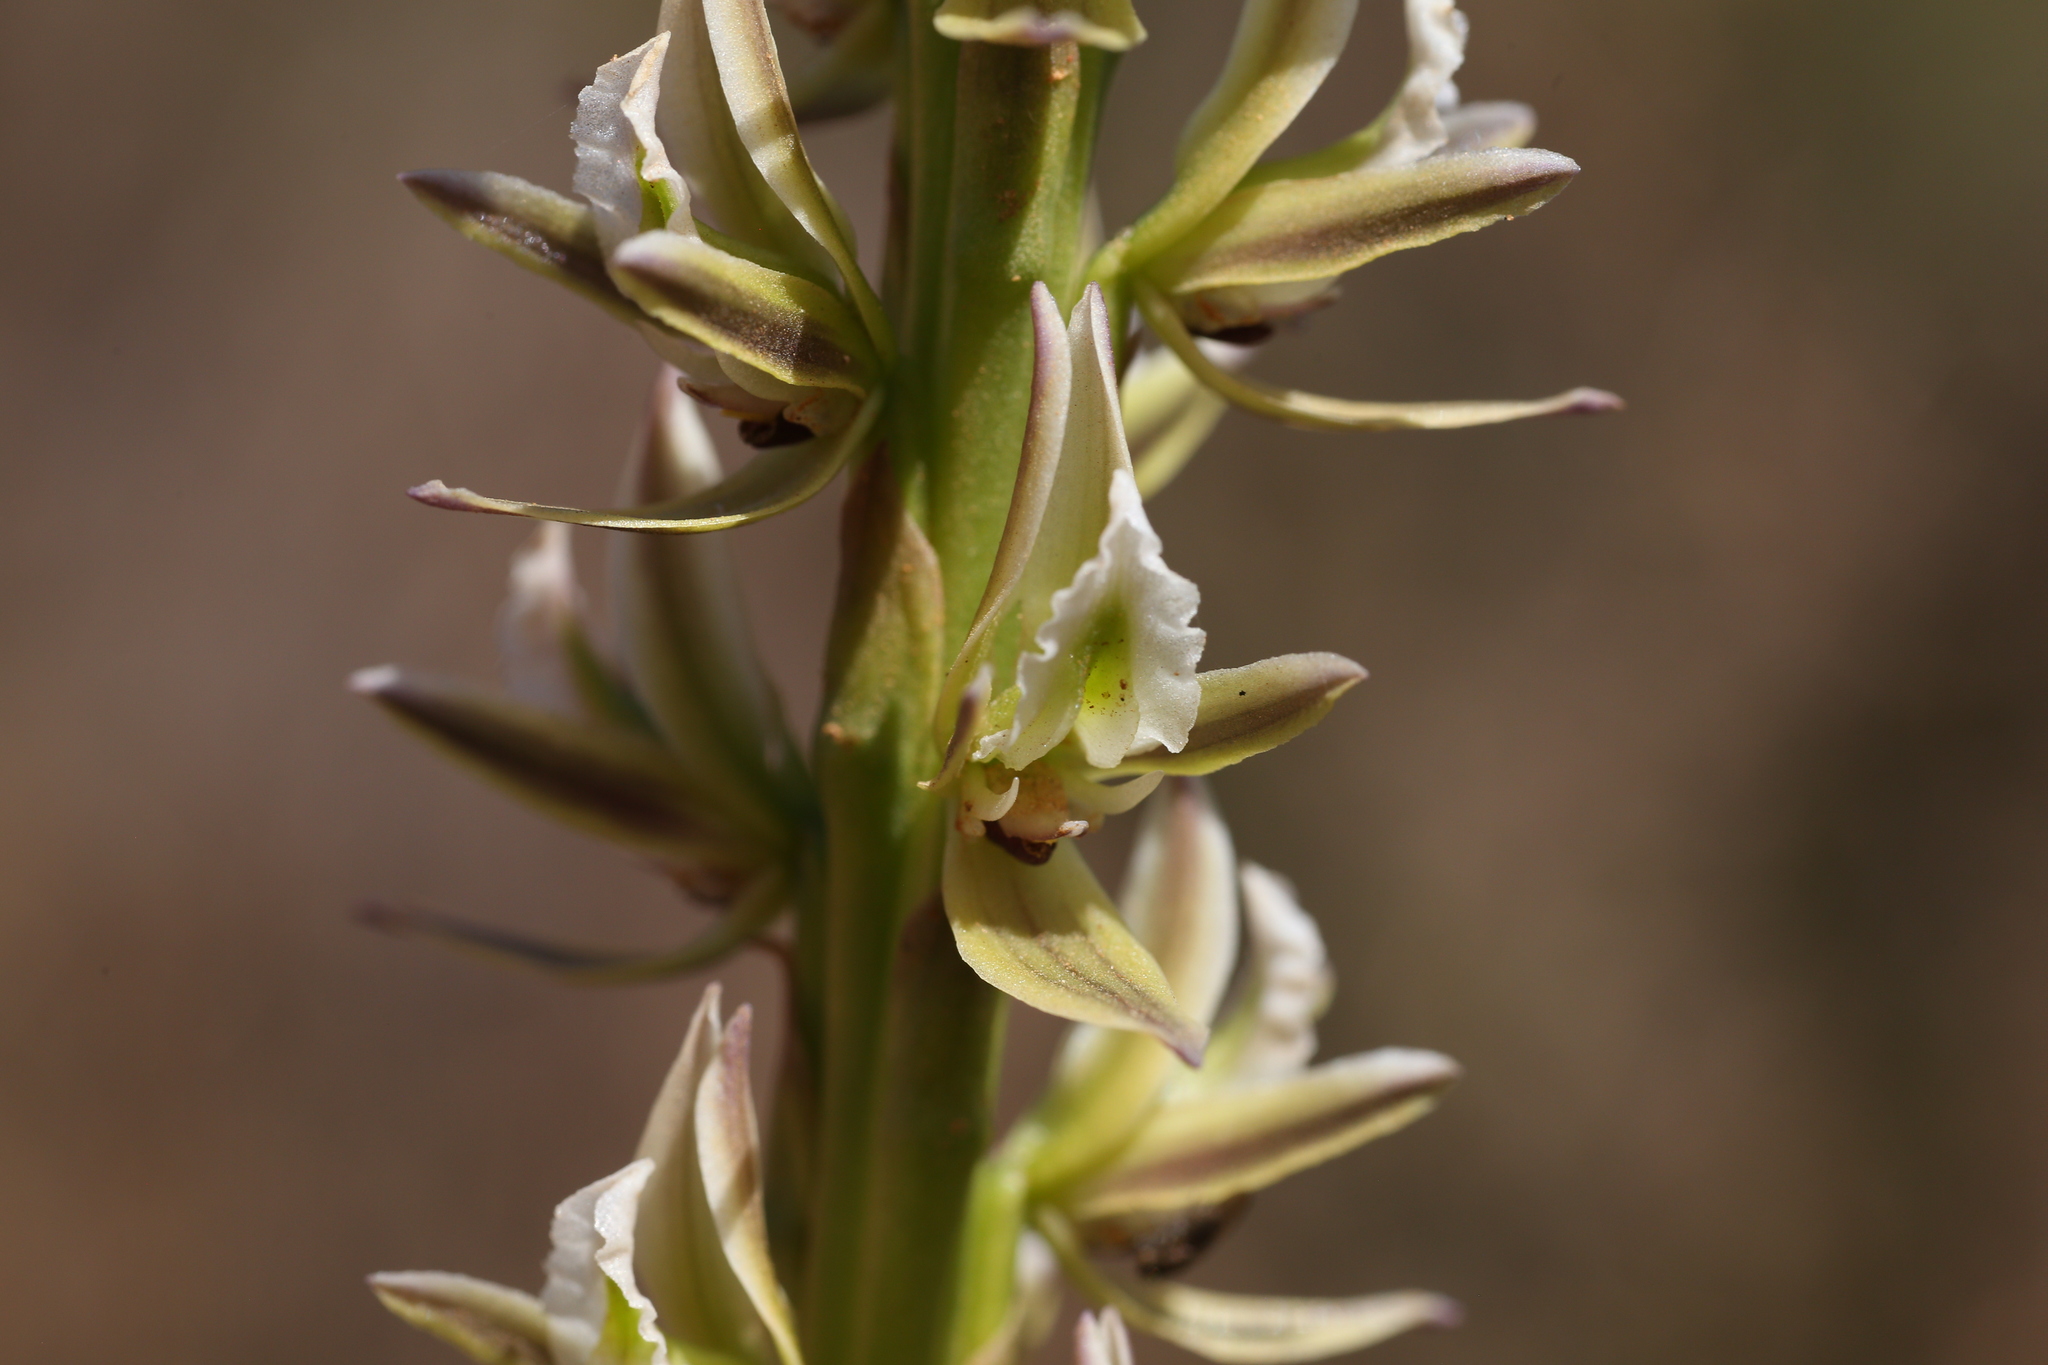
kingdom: Plantae
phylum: Tracheophyta
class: Liliopsida
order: Asparagales
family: Orchidaceae
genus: Prasophyllum
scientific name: Prasophyllum brownii
